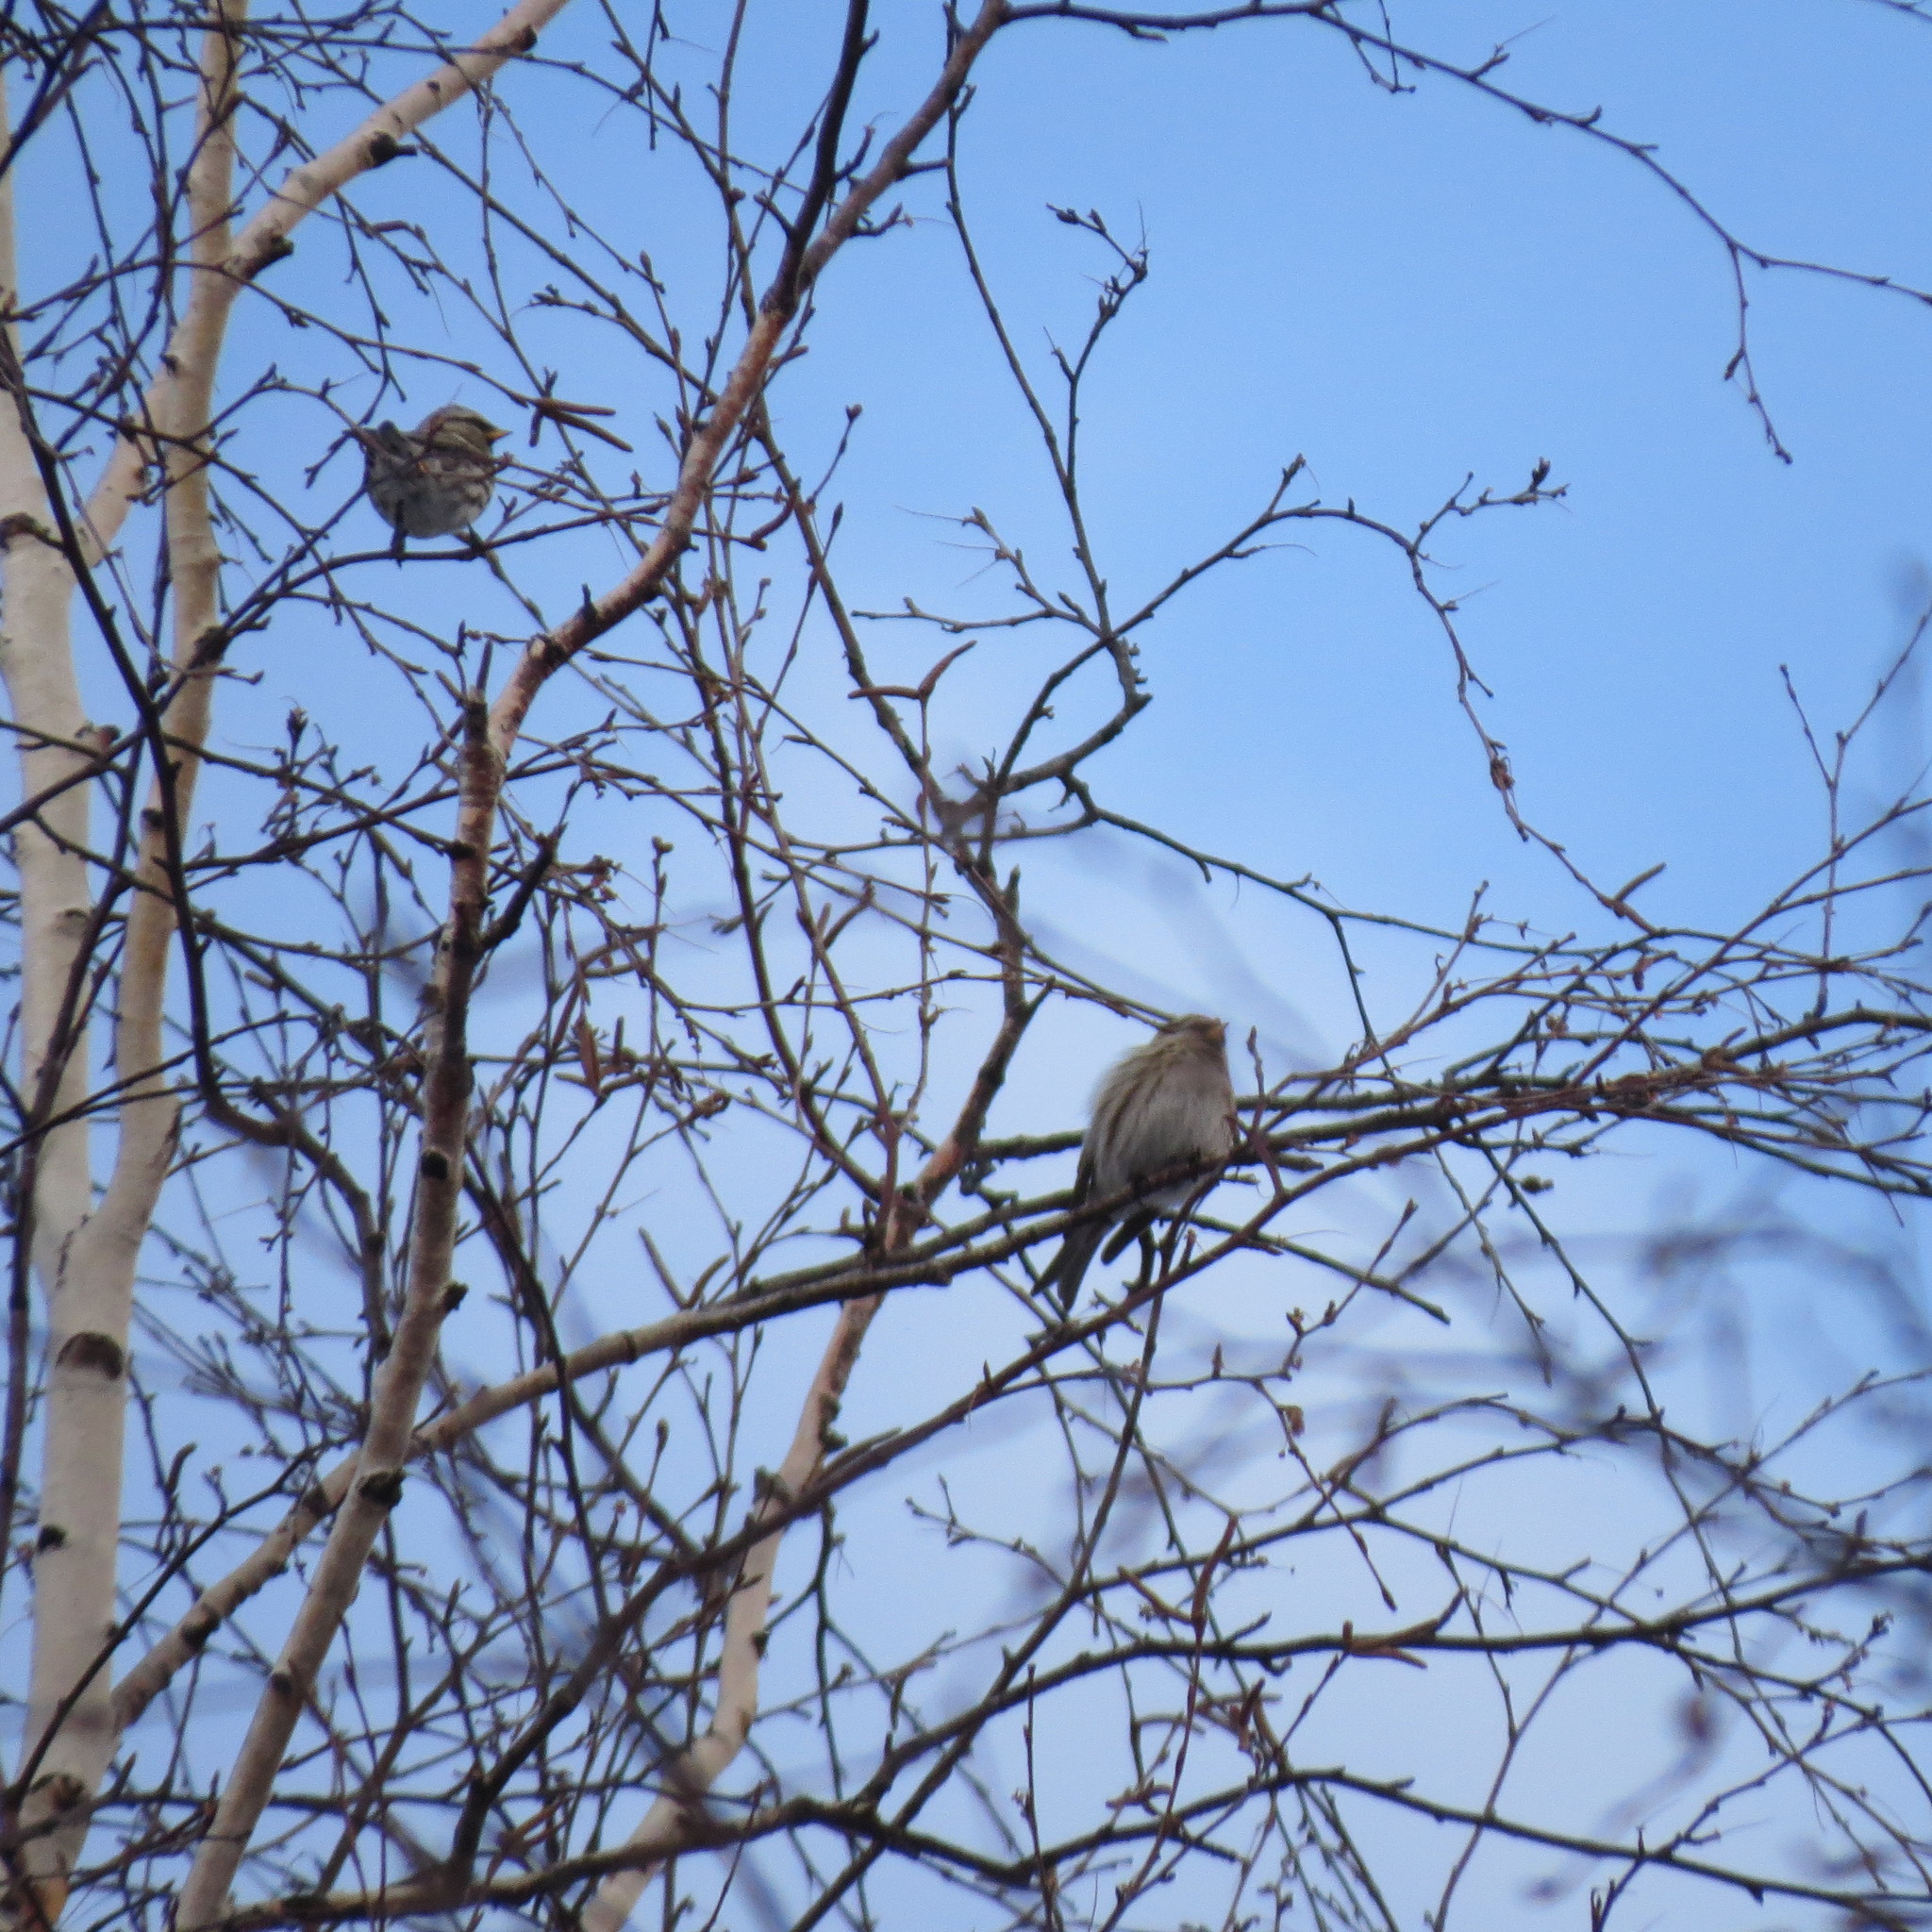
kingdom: Animalia
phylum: Chordata
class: Aves
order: Passeriformes
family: Fringillidae
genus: Acanthis
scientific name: Acanthis hornemanni
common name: Arctic redpoll
